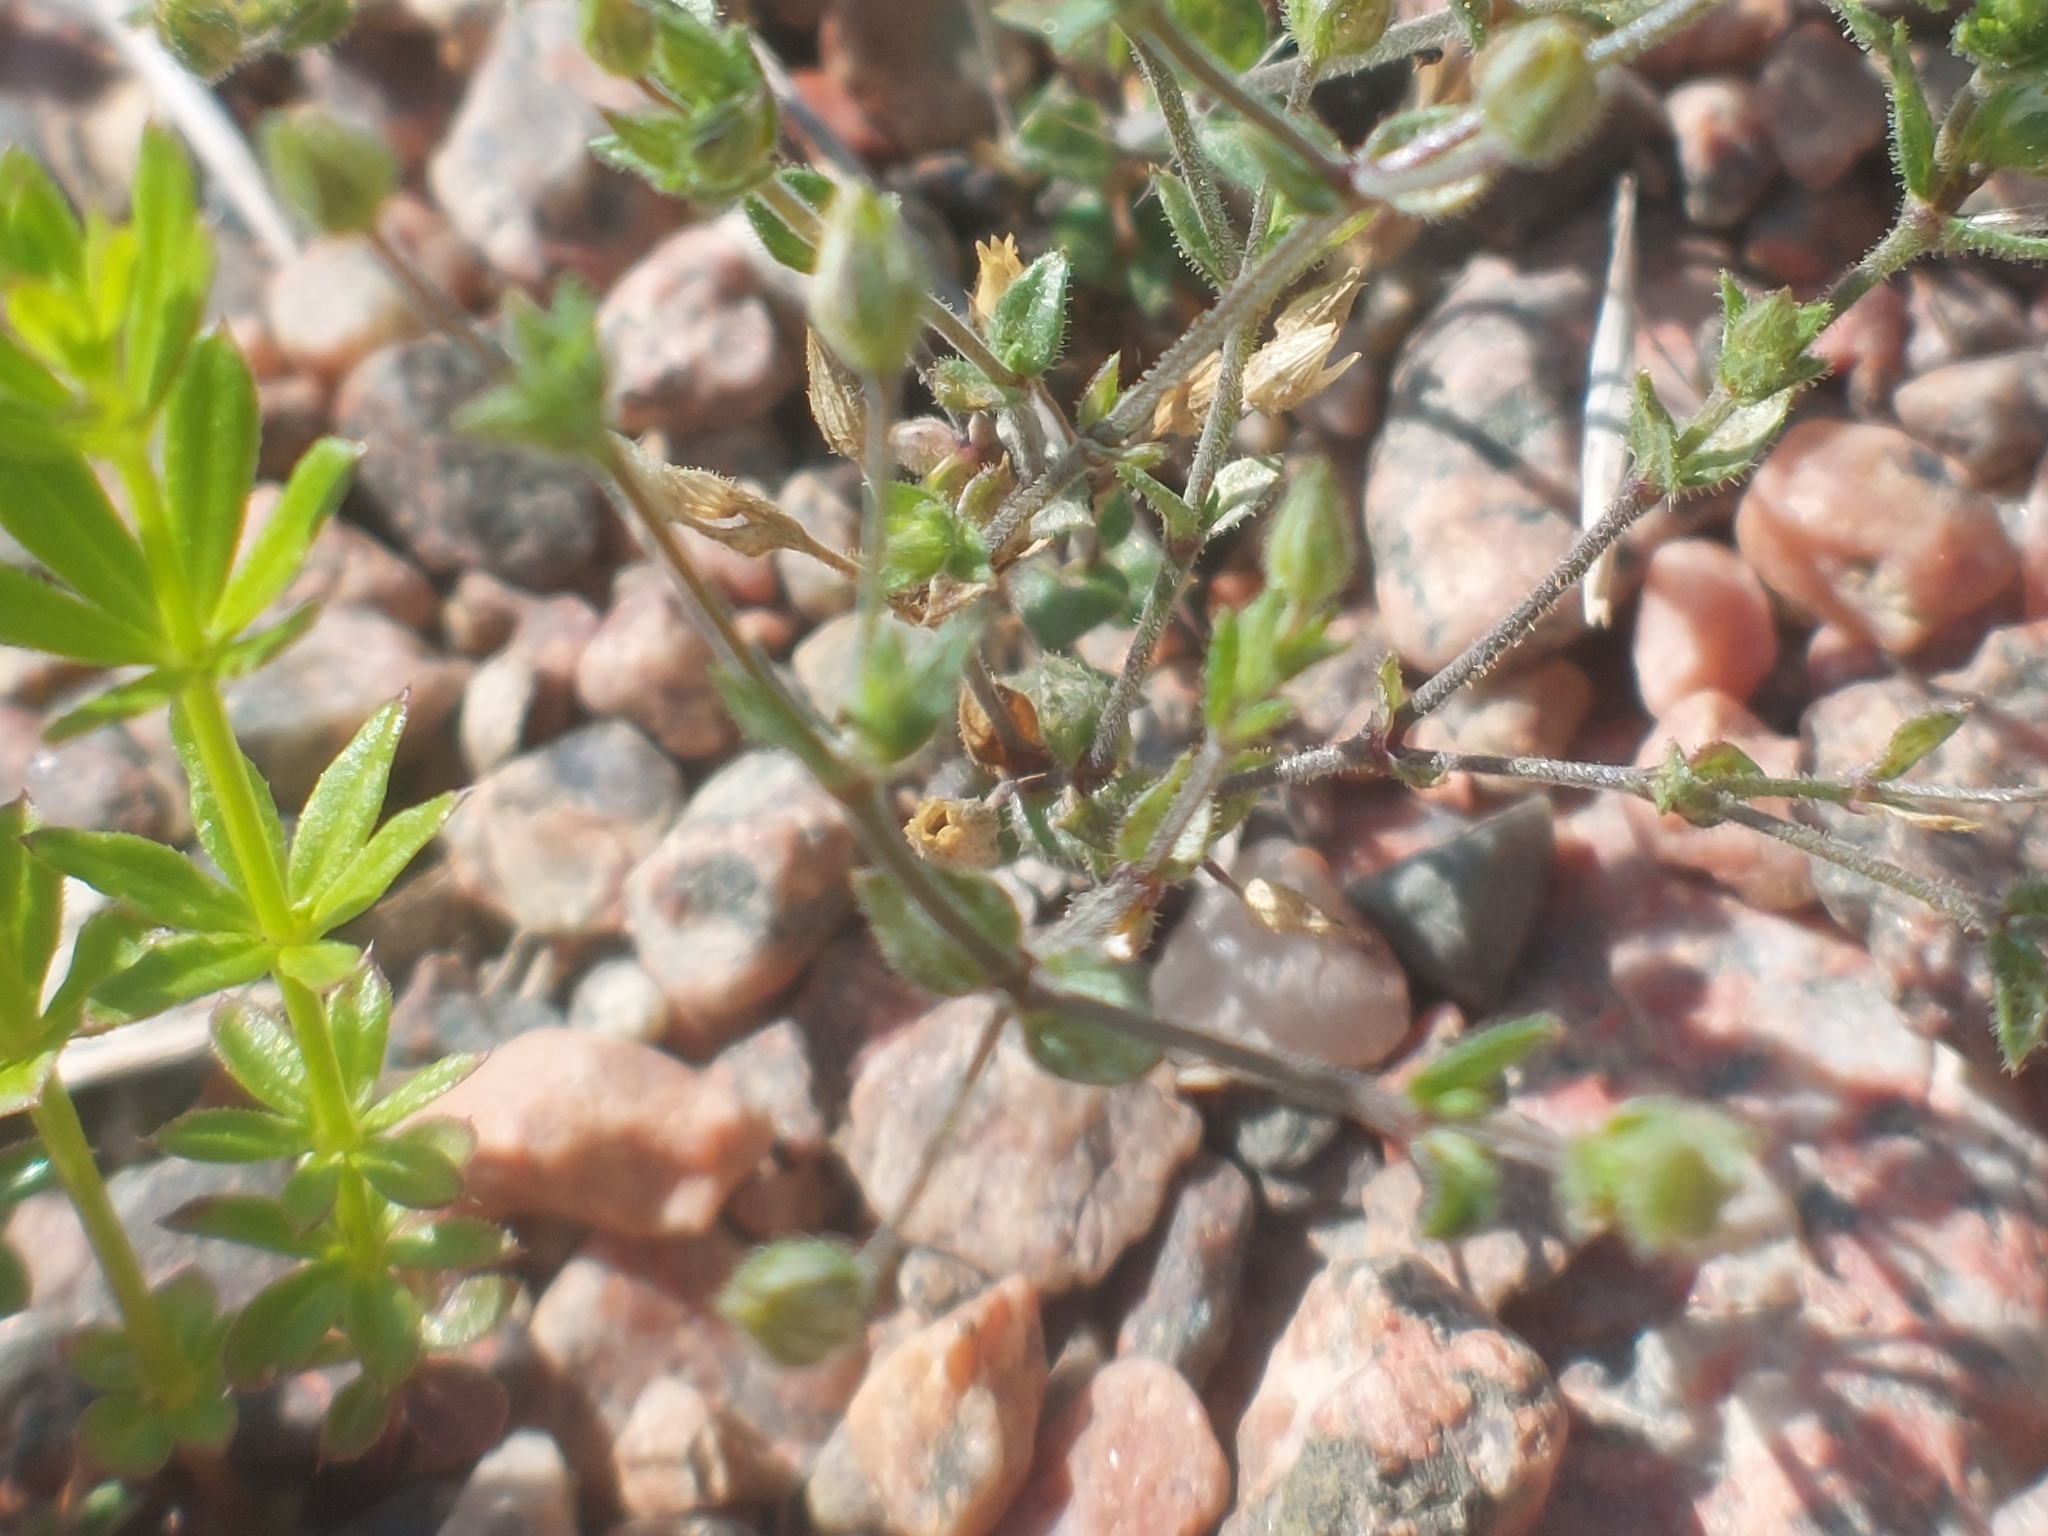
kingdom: Plantae
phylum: Tracheophyta
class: Magnoliopsida
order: Caryophyllales
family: Caryophyllaceae
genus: Arenaria
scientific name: Arenaria serpyllifolia
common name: Thyme-leaved sandwort
